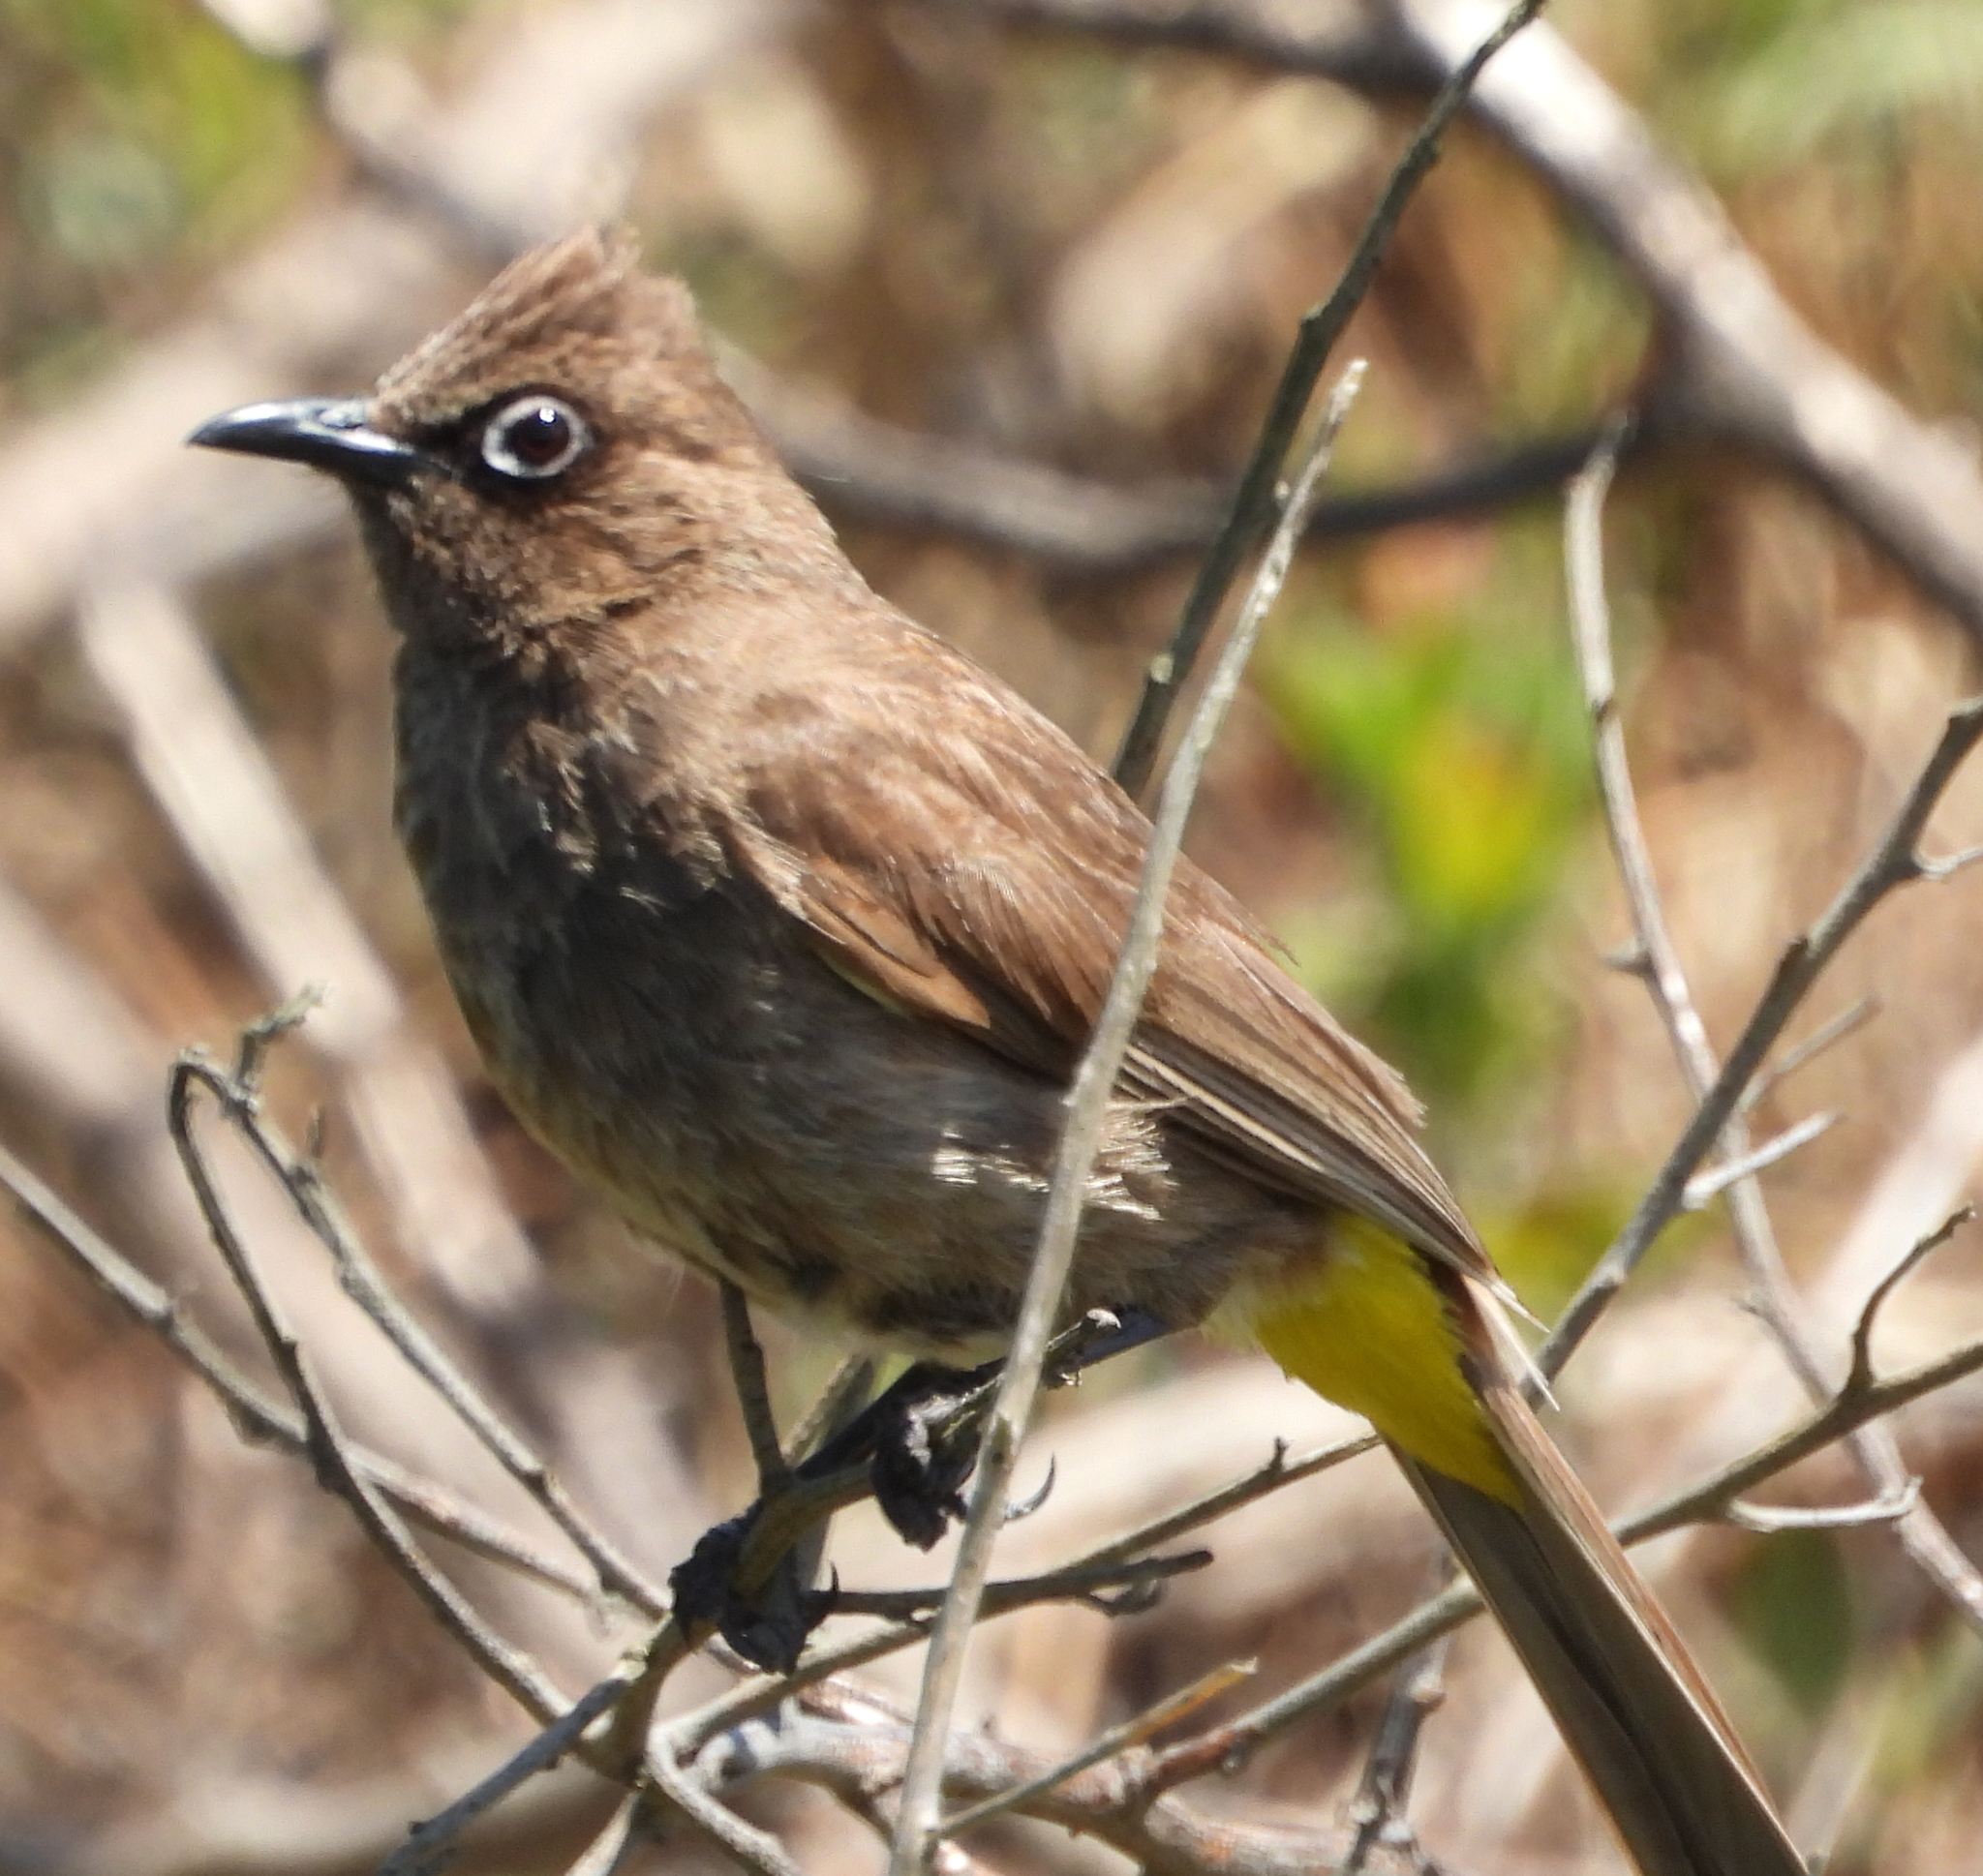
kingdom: Animalia
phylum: Chordata
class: Aves
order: Passeriformes
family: Pycnonotidae
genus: Pycnonotus
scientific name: Pycnonotus capensis
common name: Cape bulbul
